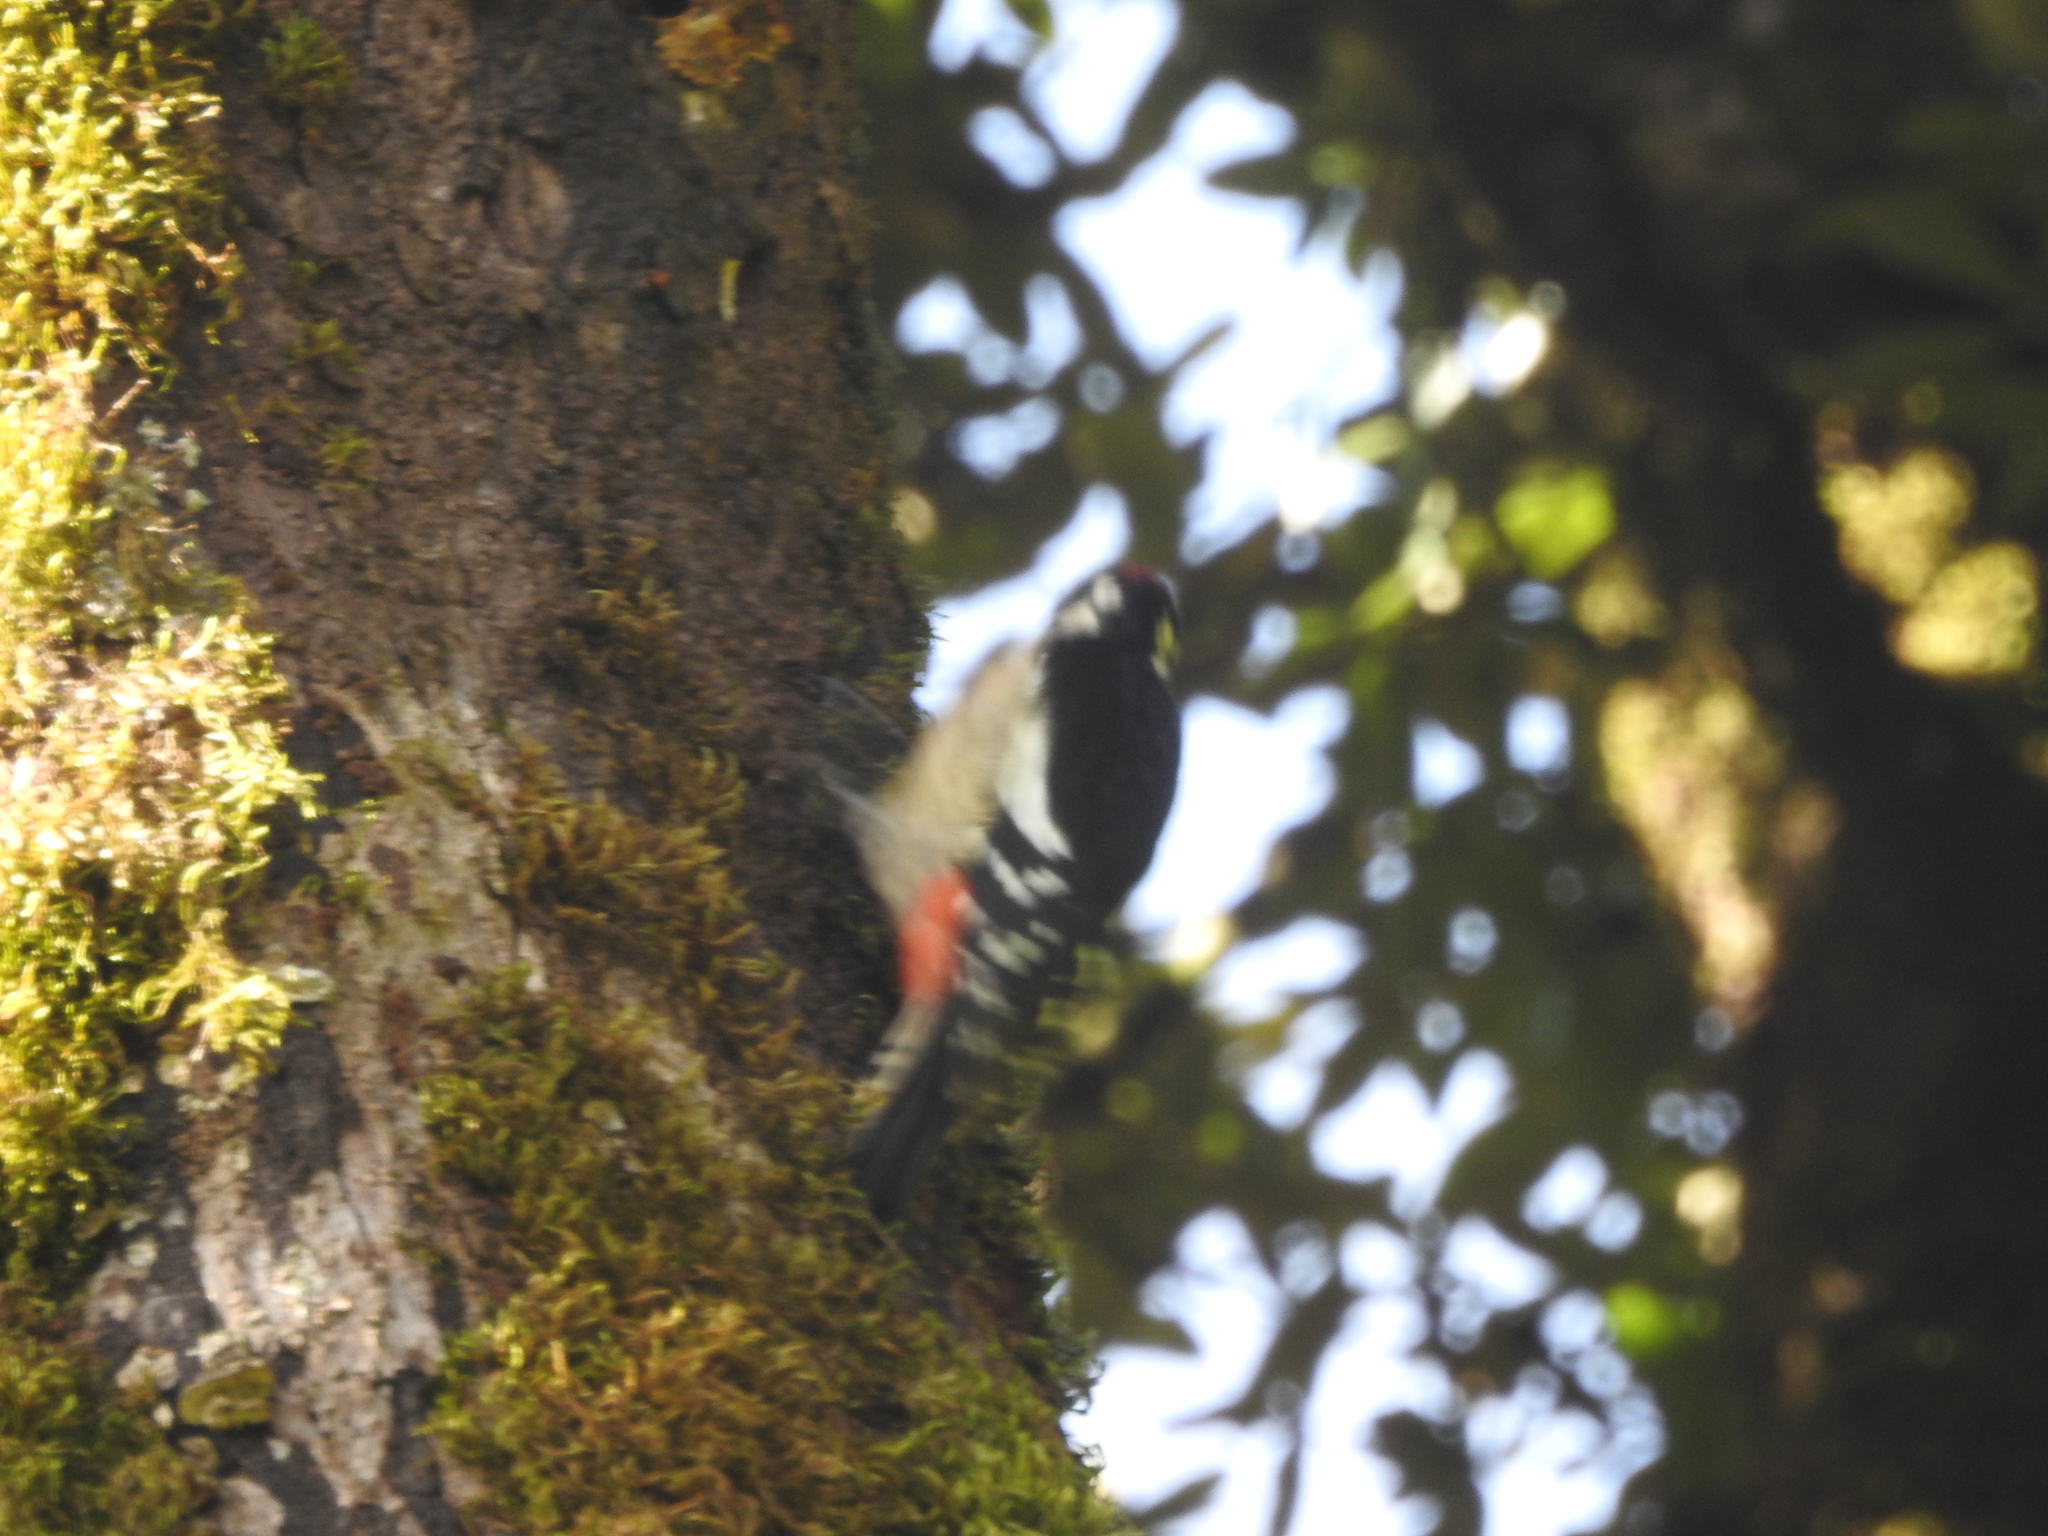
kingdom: Animalia
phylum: Chordata
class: Aves
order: Piciformes
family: Picidae
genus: Dendrocopos
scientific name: Dendrocopos himalayensis
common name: Himalayan woodpecker
